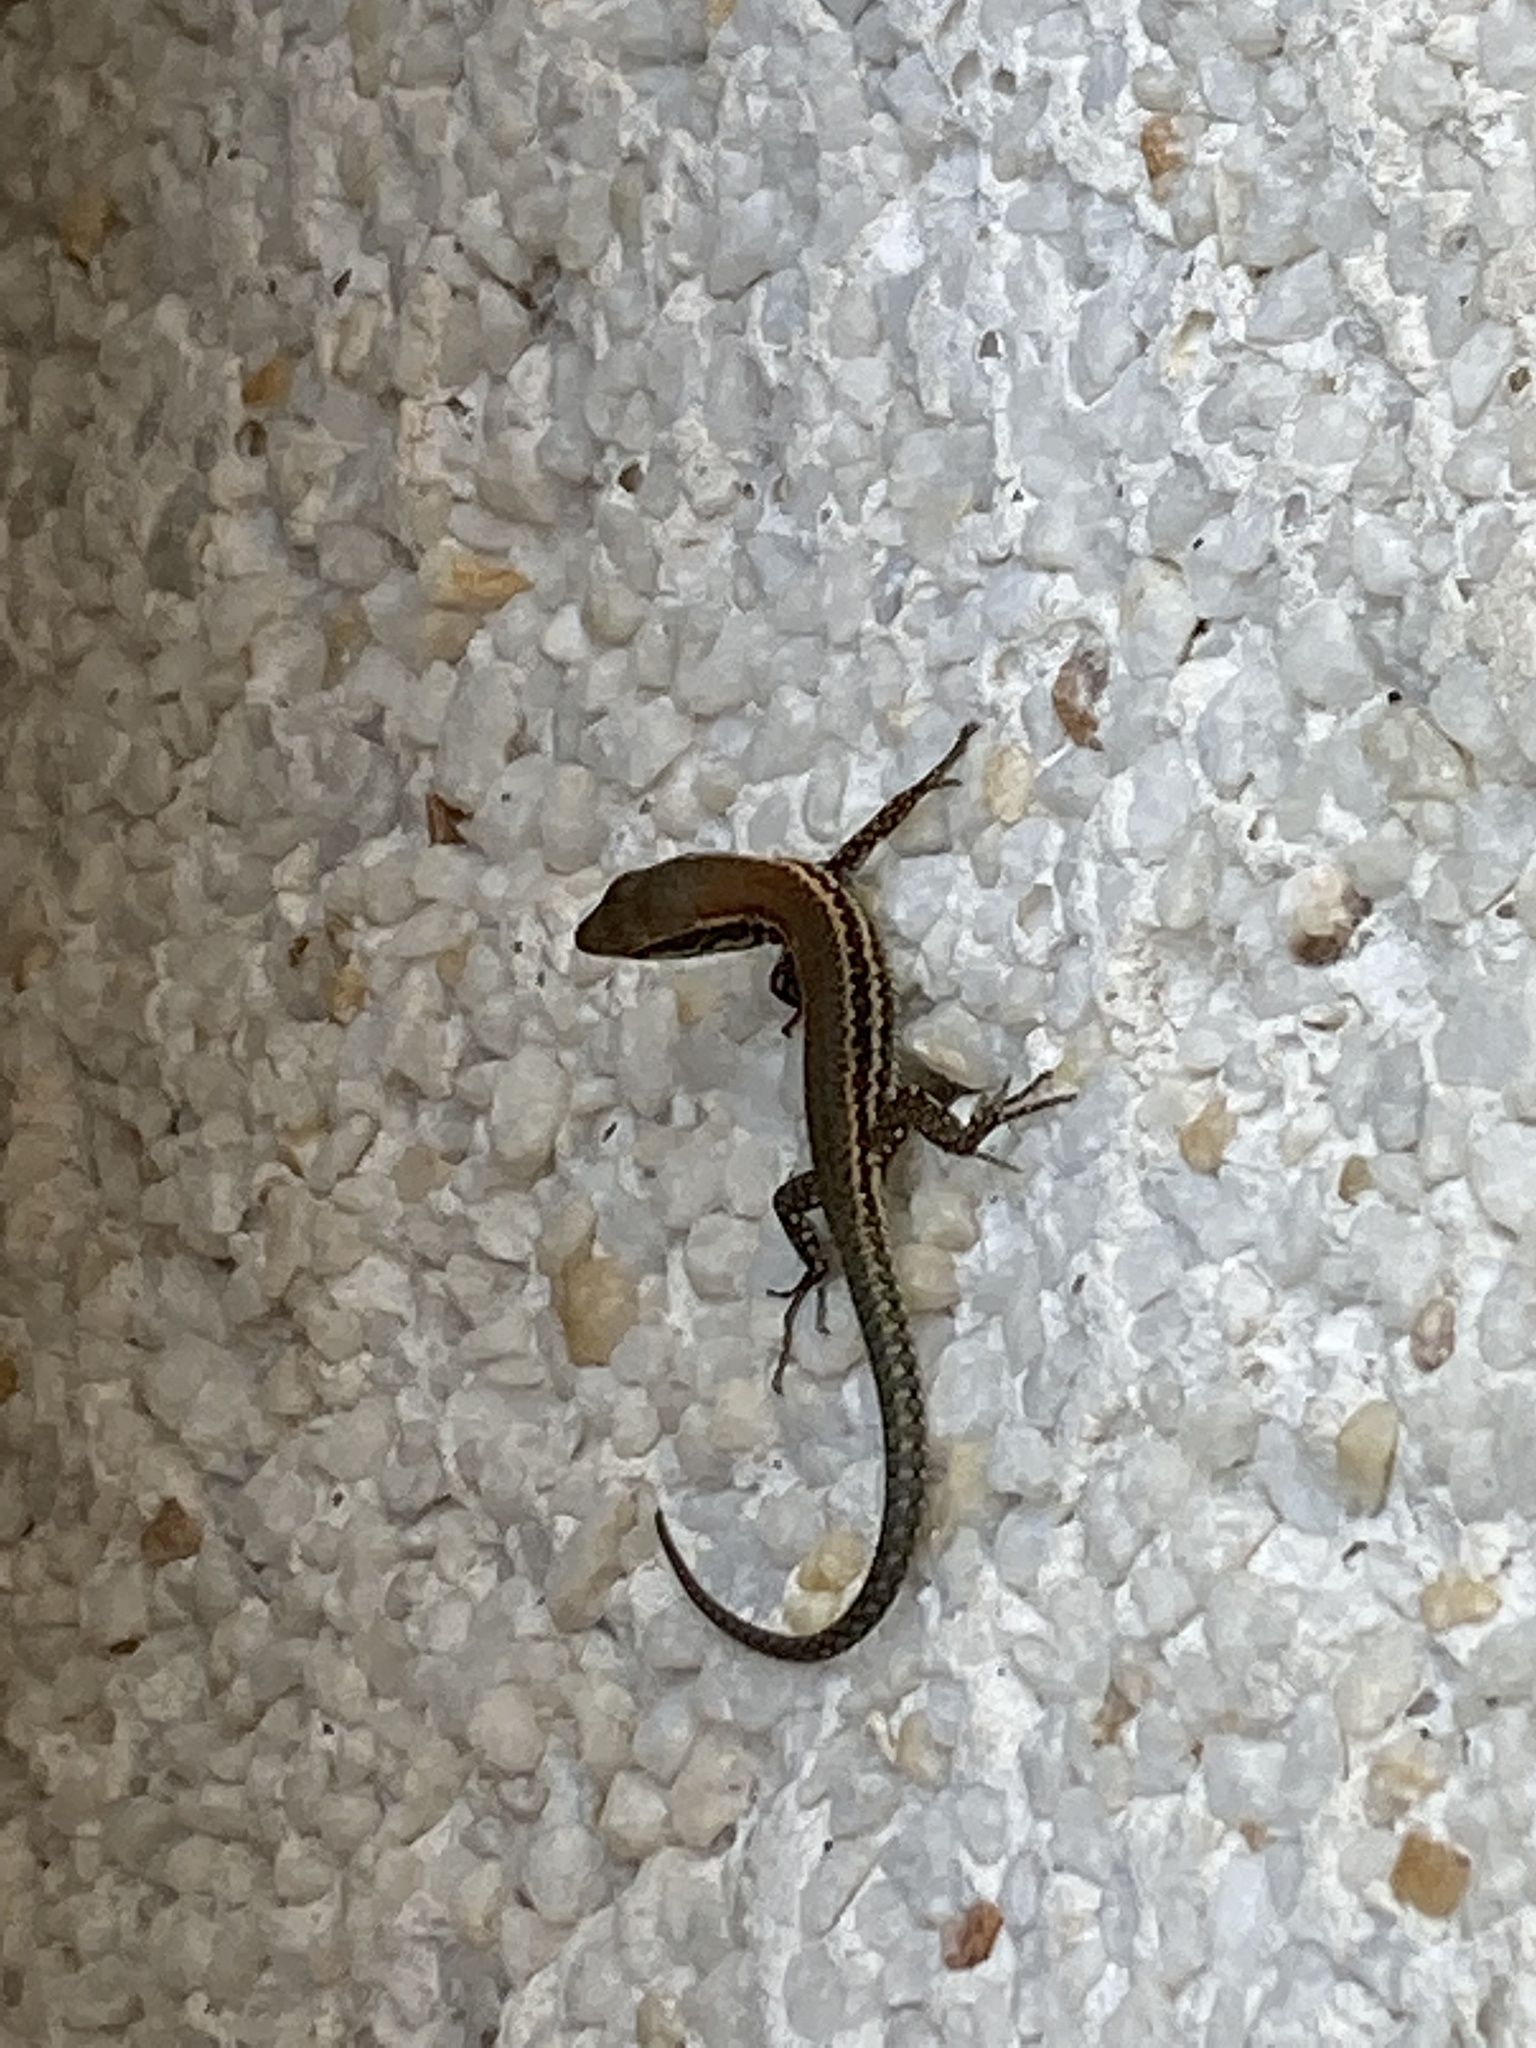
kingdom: Animalia
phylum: Chordata
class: Squamata
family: Lacertidae
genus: Podarcis
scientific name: Podarcis muralis
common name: Common wall lizard
